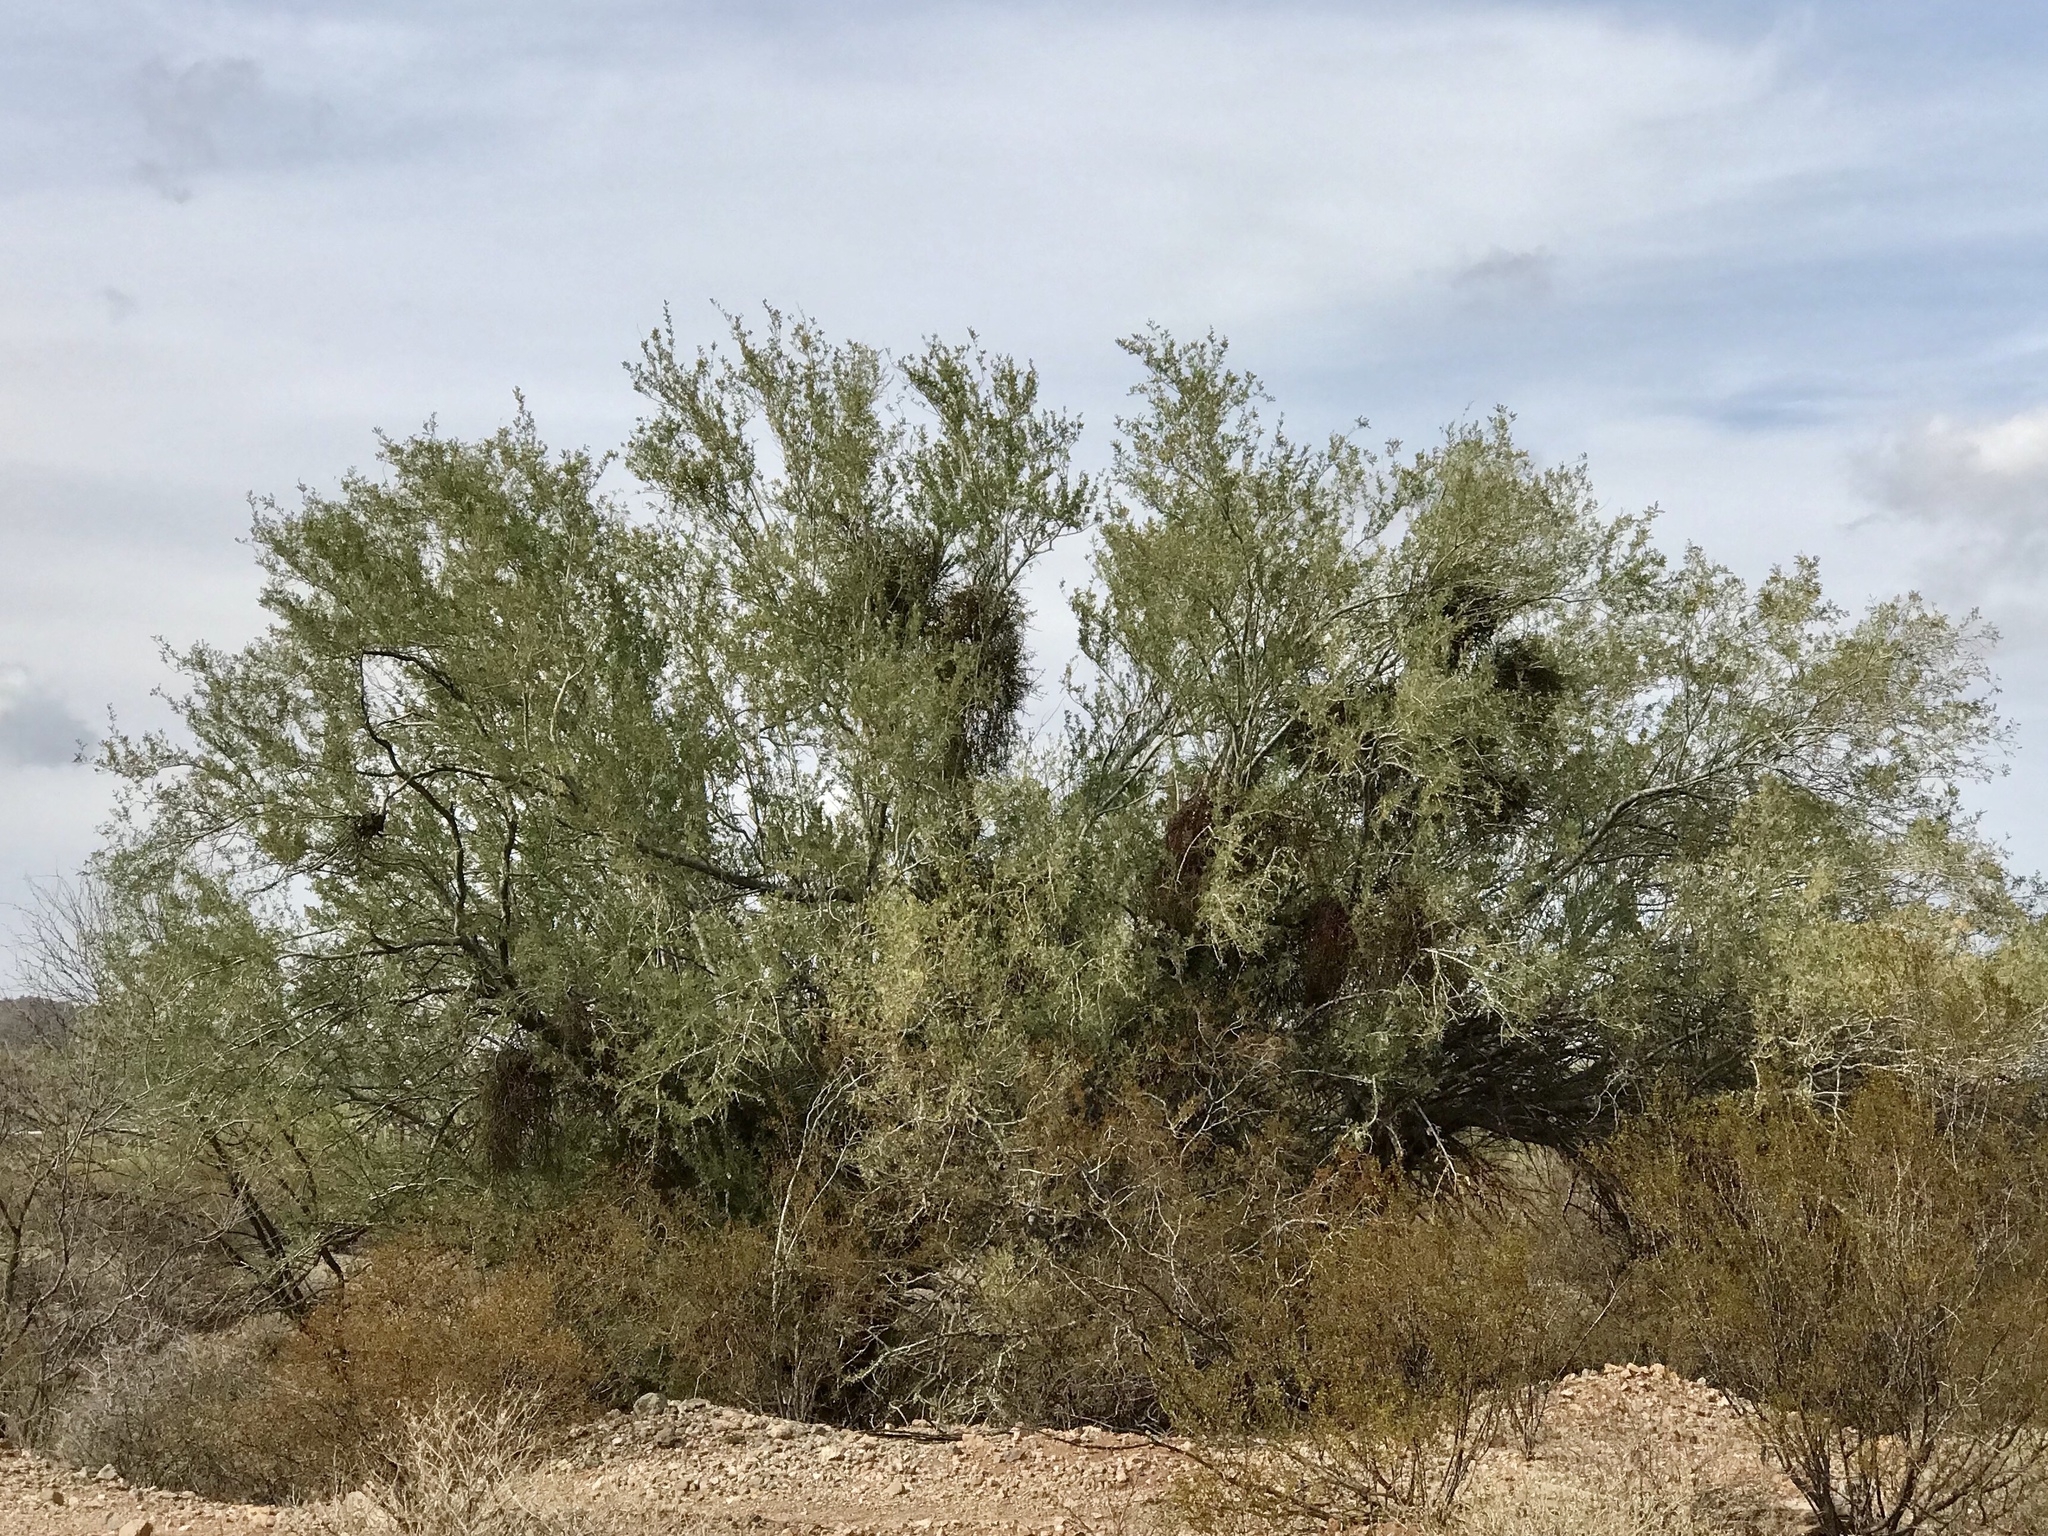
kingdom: Plantae
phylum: Tracheophyta
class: Magnoliopsida
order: Fabales
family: Fabaceae
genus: Olneya
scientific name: Olneya tesota
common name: Desert ironwood
